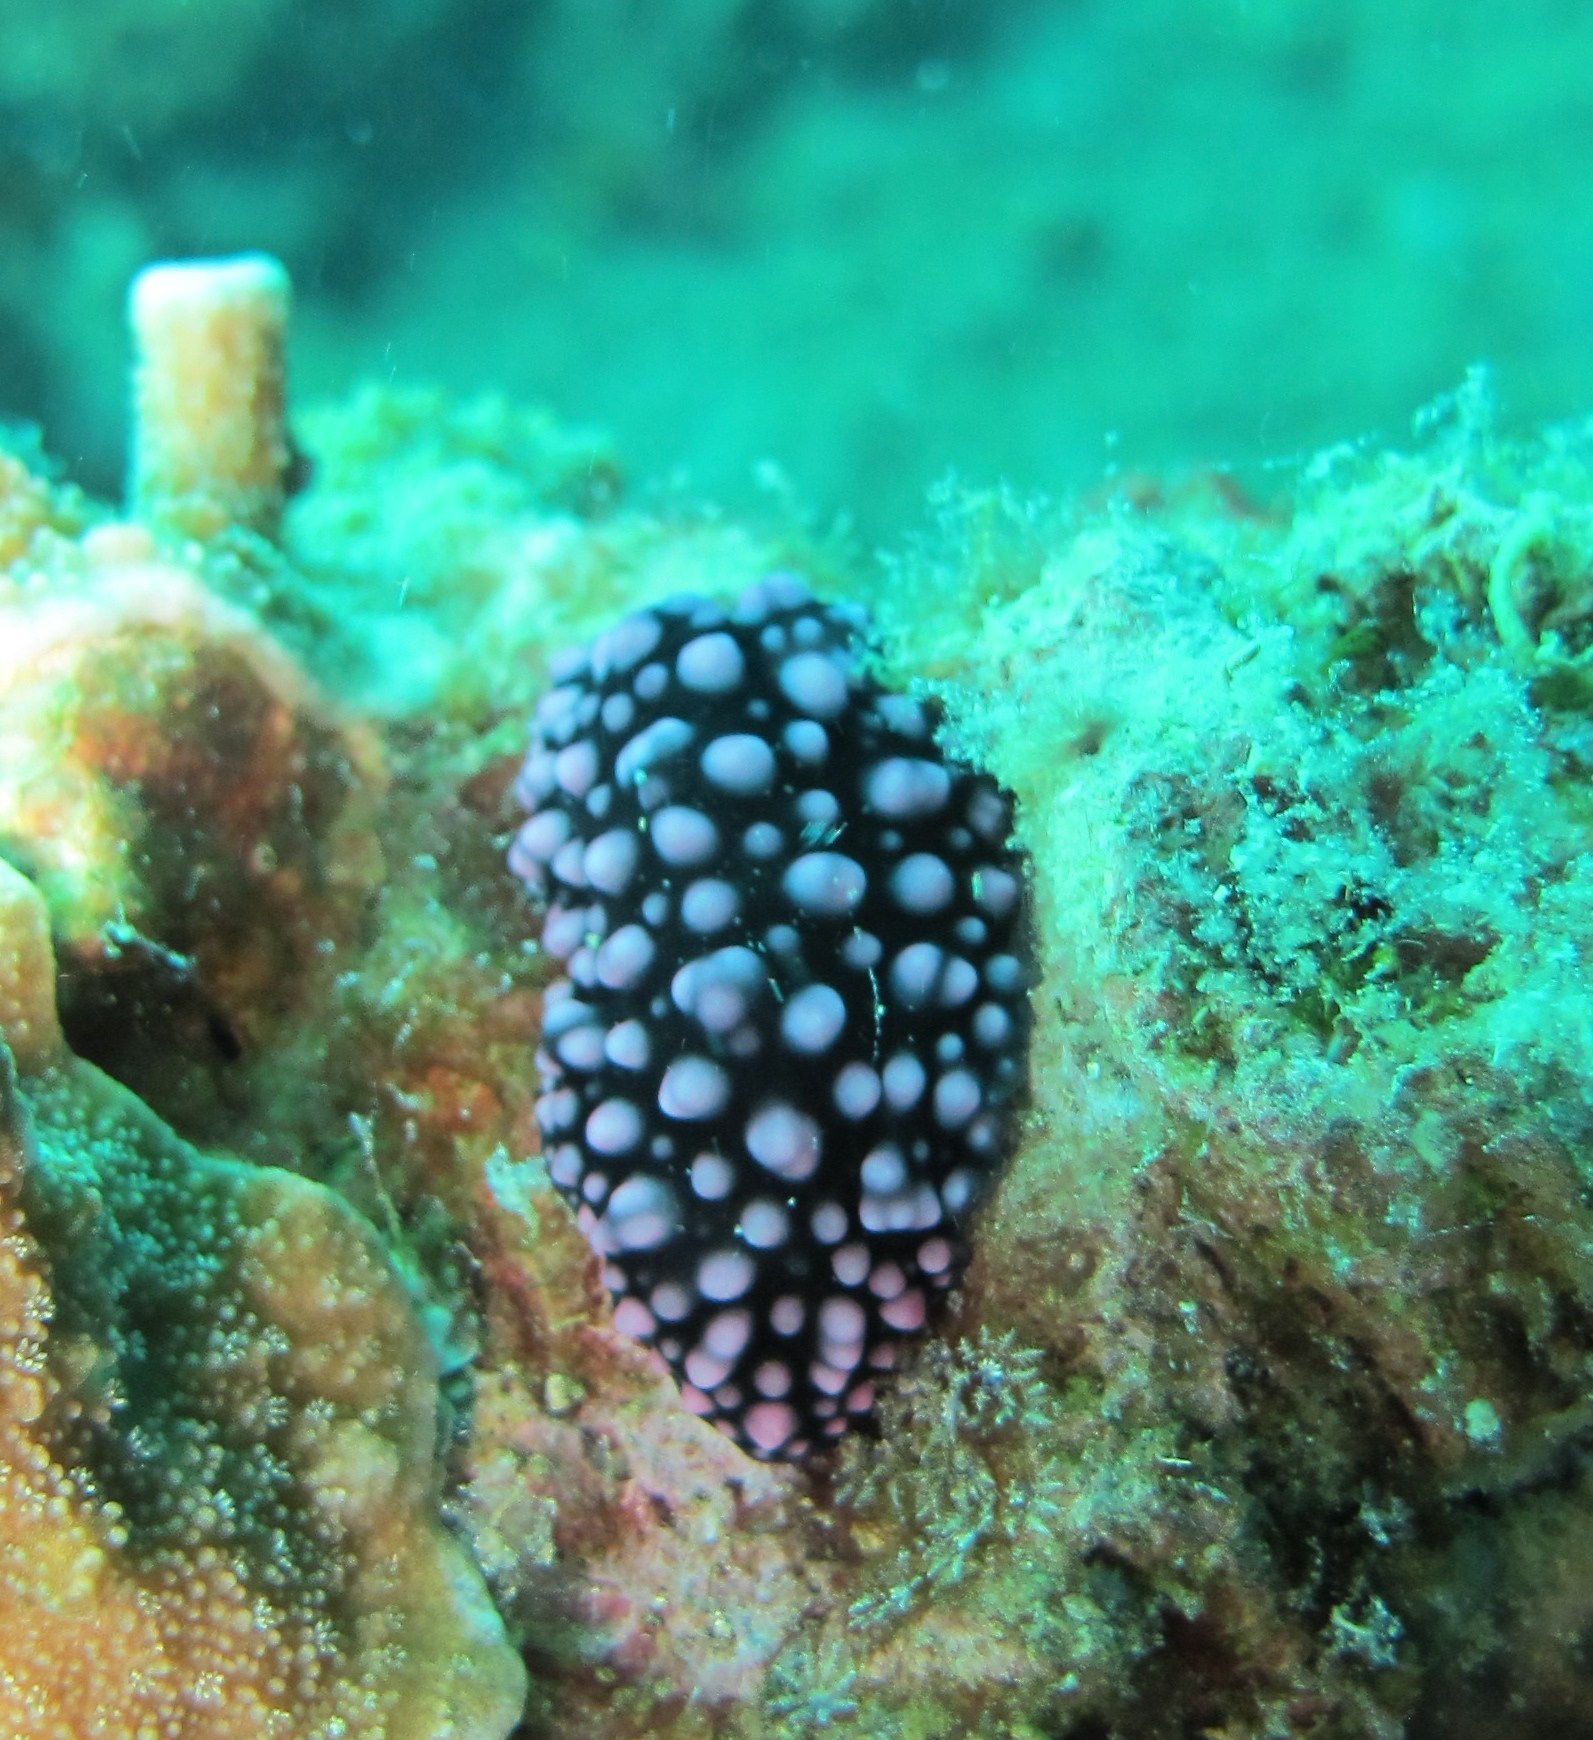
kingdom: Animalia
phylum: Mollusca
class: Gastropoda
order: Nudibranchia
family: Phyllidiidae
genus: Phyllidiella
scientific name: Phyllidiella nigra
